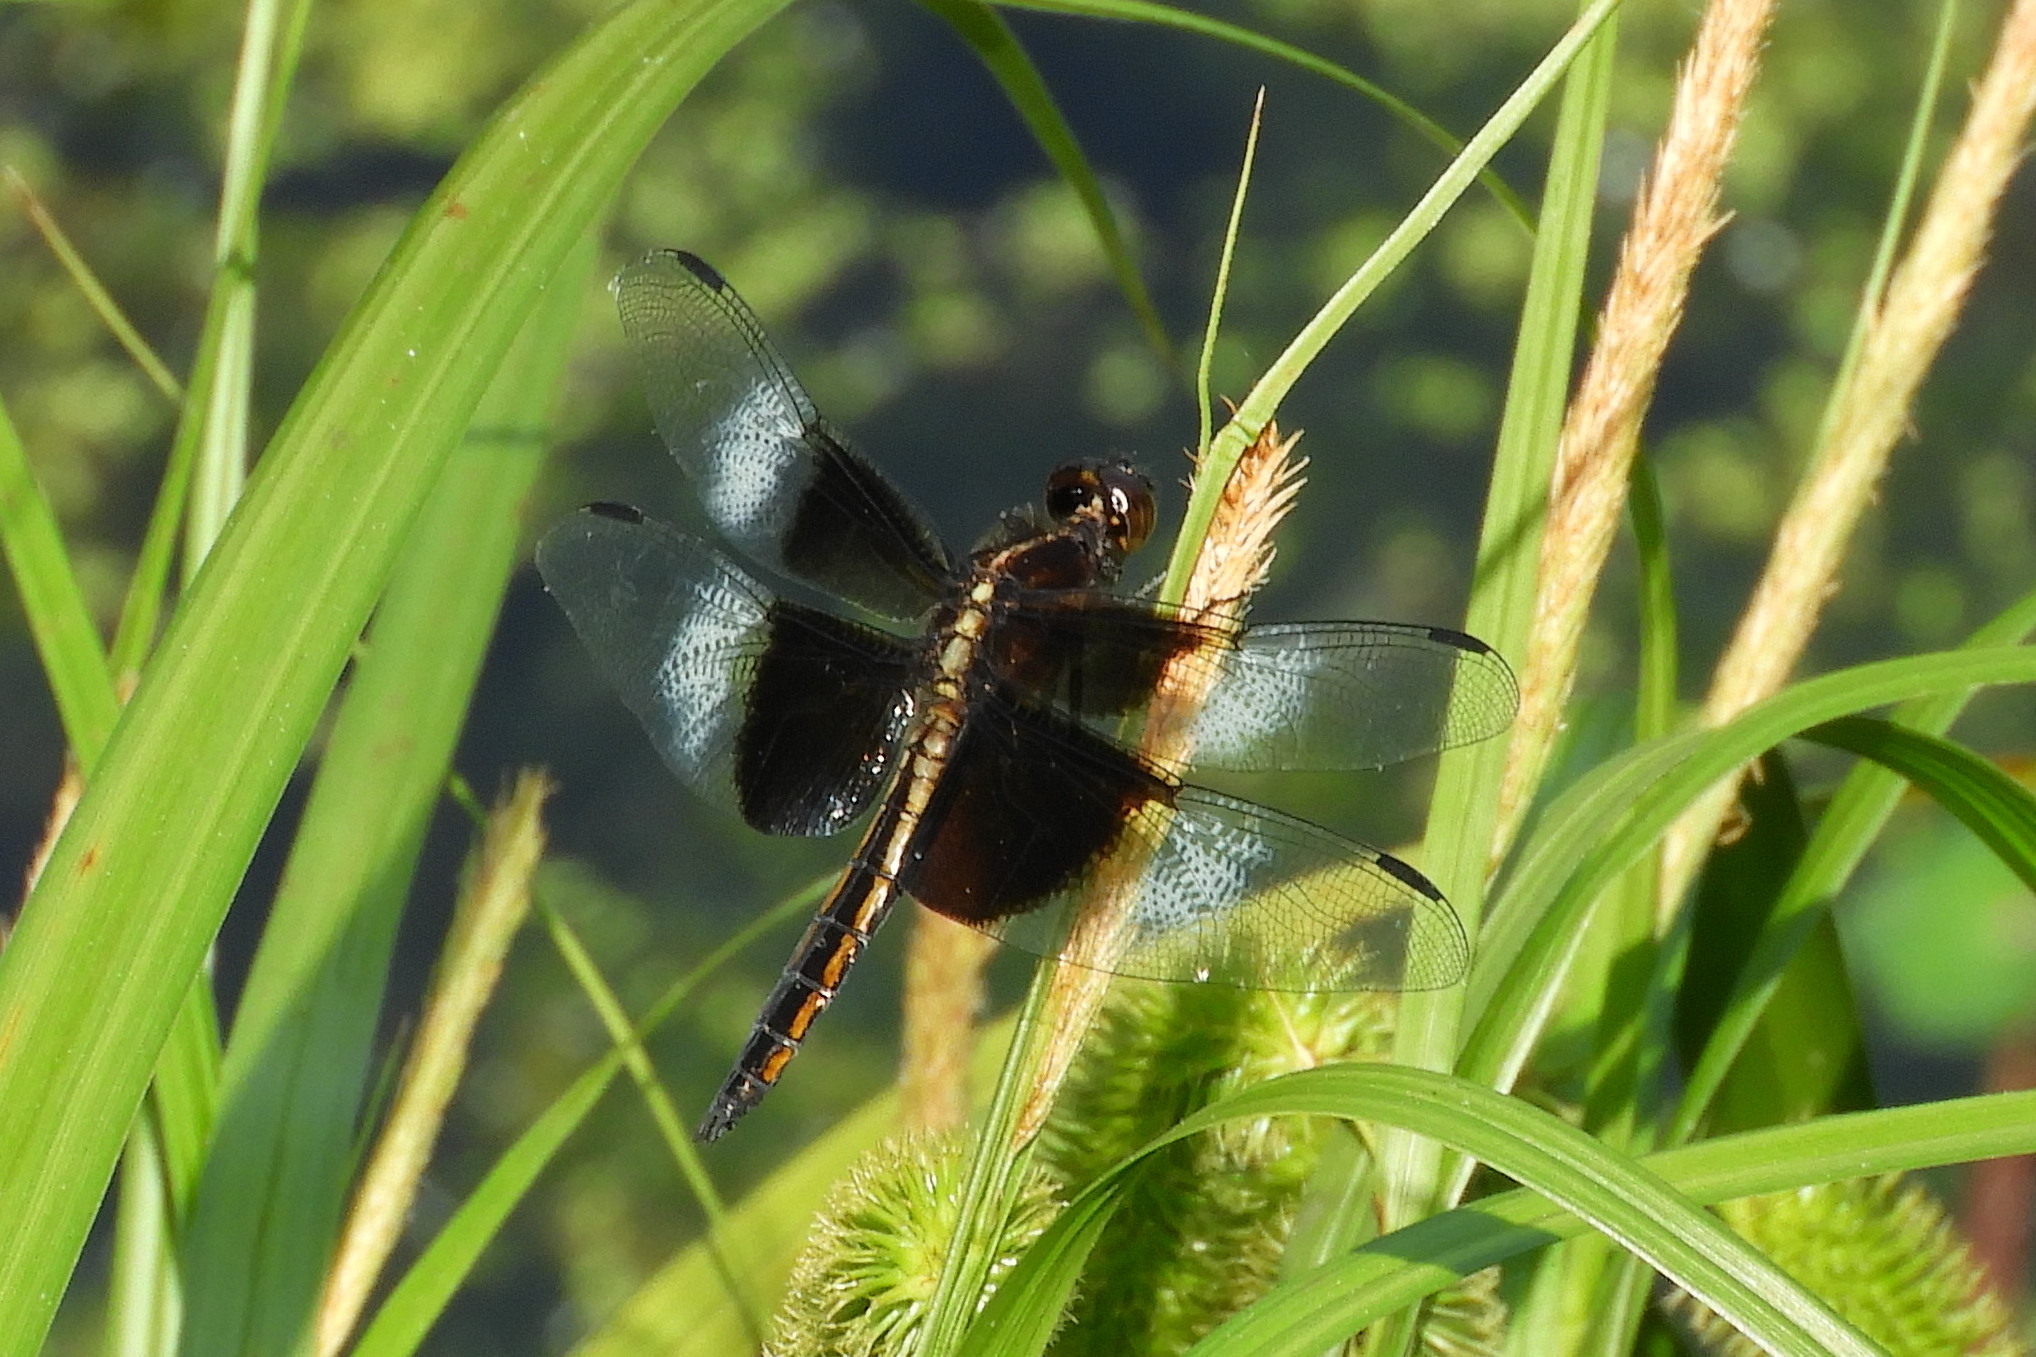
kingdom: Animalia
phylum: Arthropoda
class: Insecta
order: Odonata
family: Libellulidae
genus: Libellula
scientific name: Libellula luctuosa
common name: Widow skimmer
